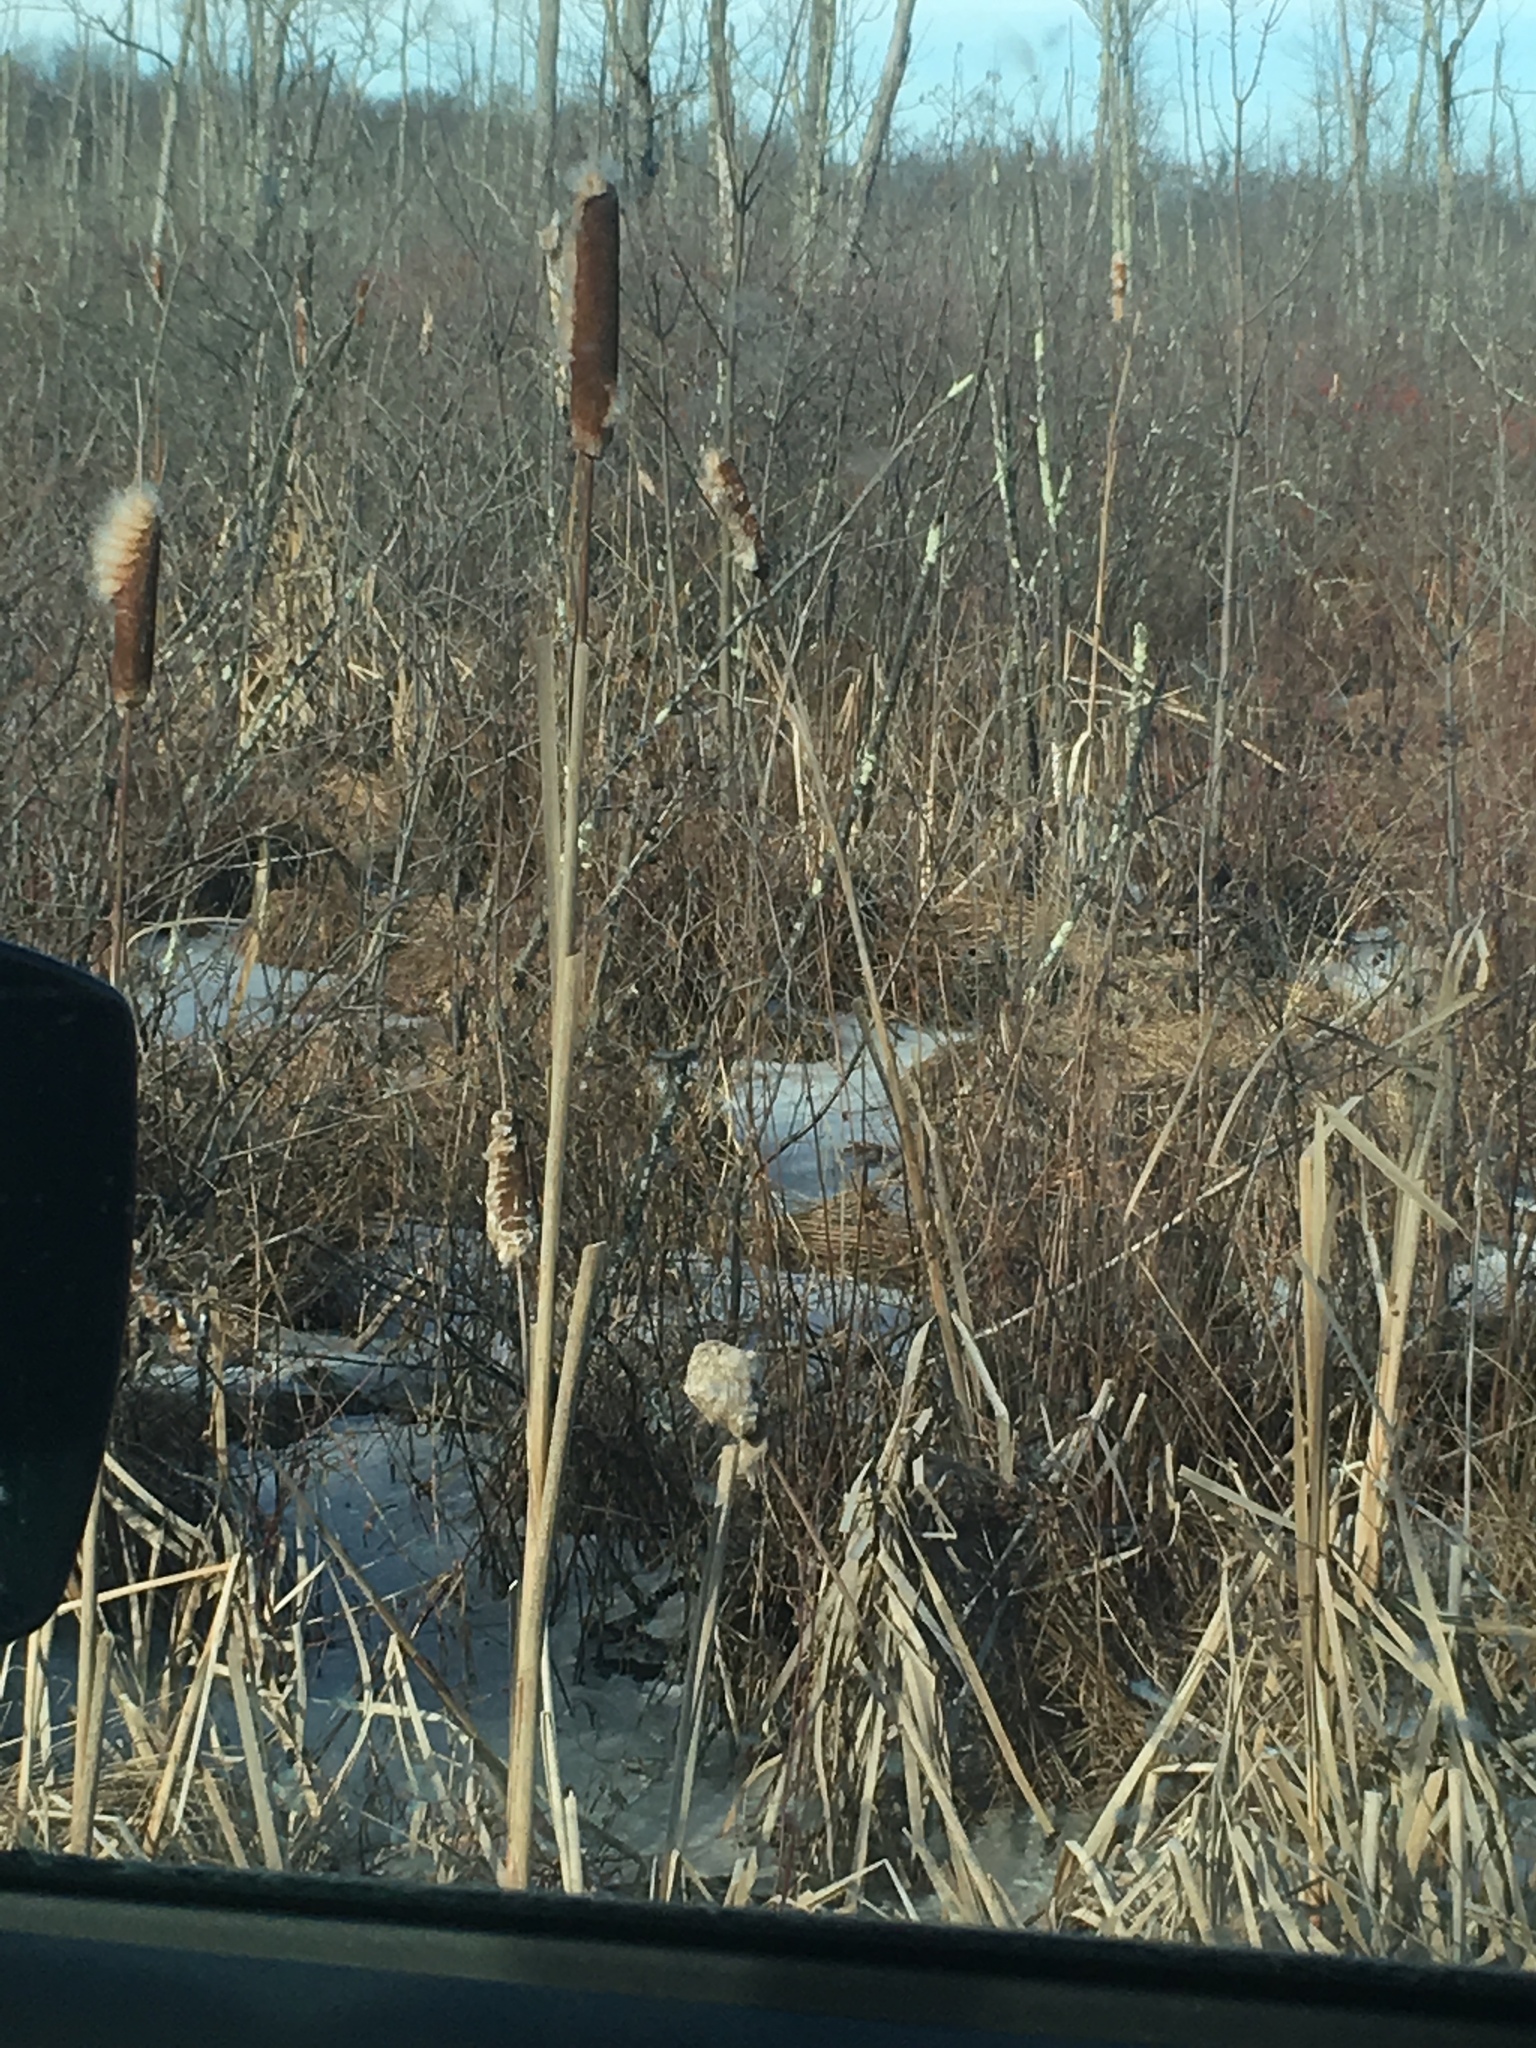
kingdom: Plantae
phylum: Tracheophyta
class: Liliopsida
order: Poales
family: Typhaceae
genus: Typha
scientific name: Typha latifolia
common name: Broadleaf cattail
